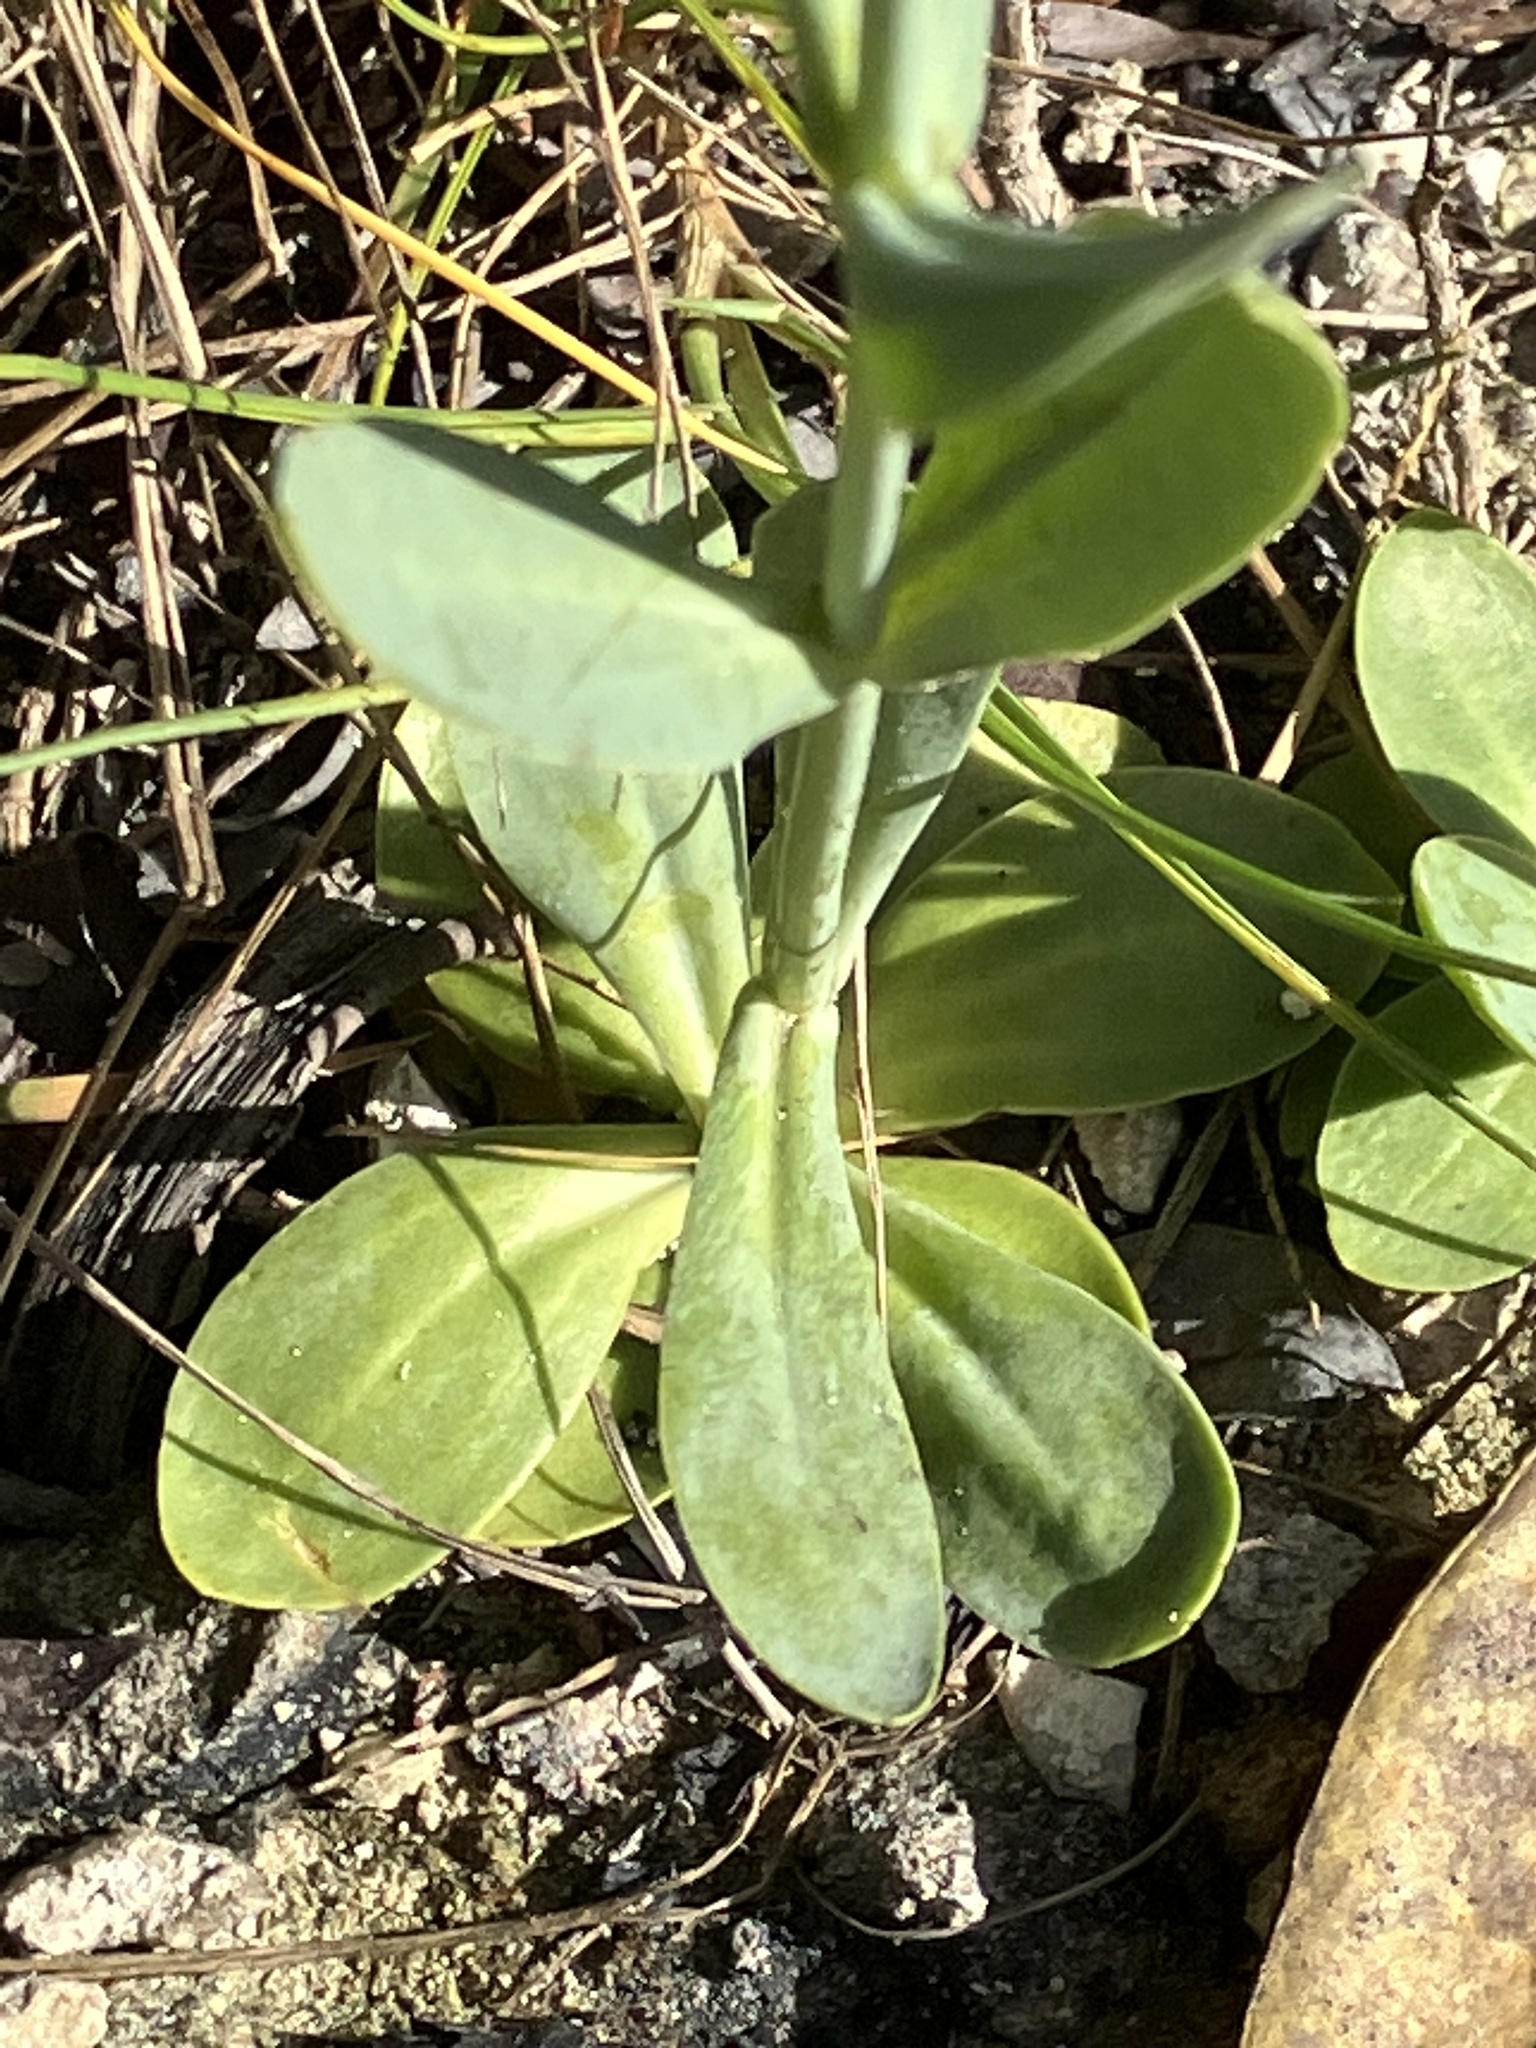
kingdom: Plantae
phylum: Tracheophyta
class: Magnoliopsida
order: Gentianales
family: Gentianaceae
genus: Eustoma
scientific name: Eustoma exaltatum
